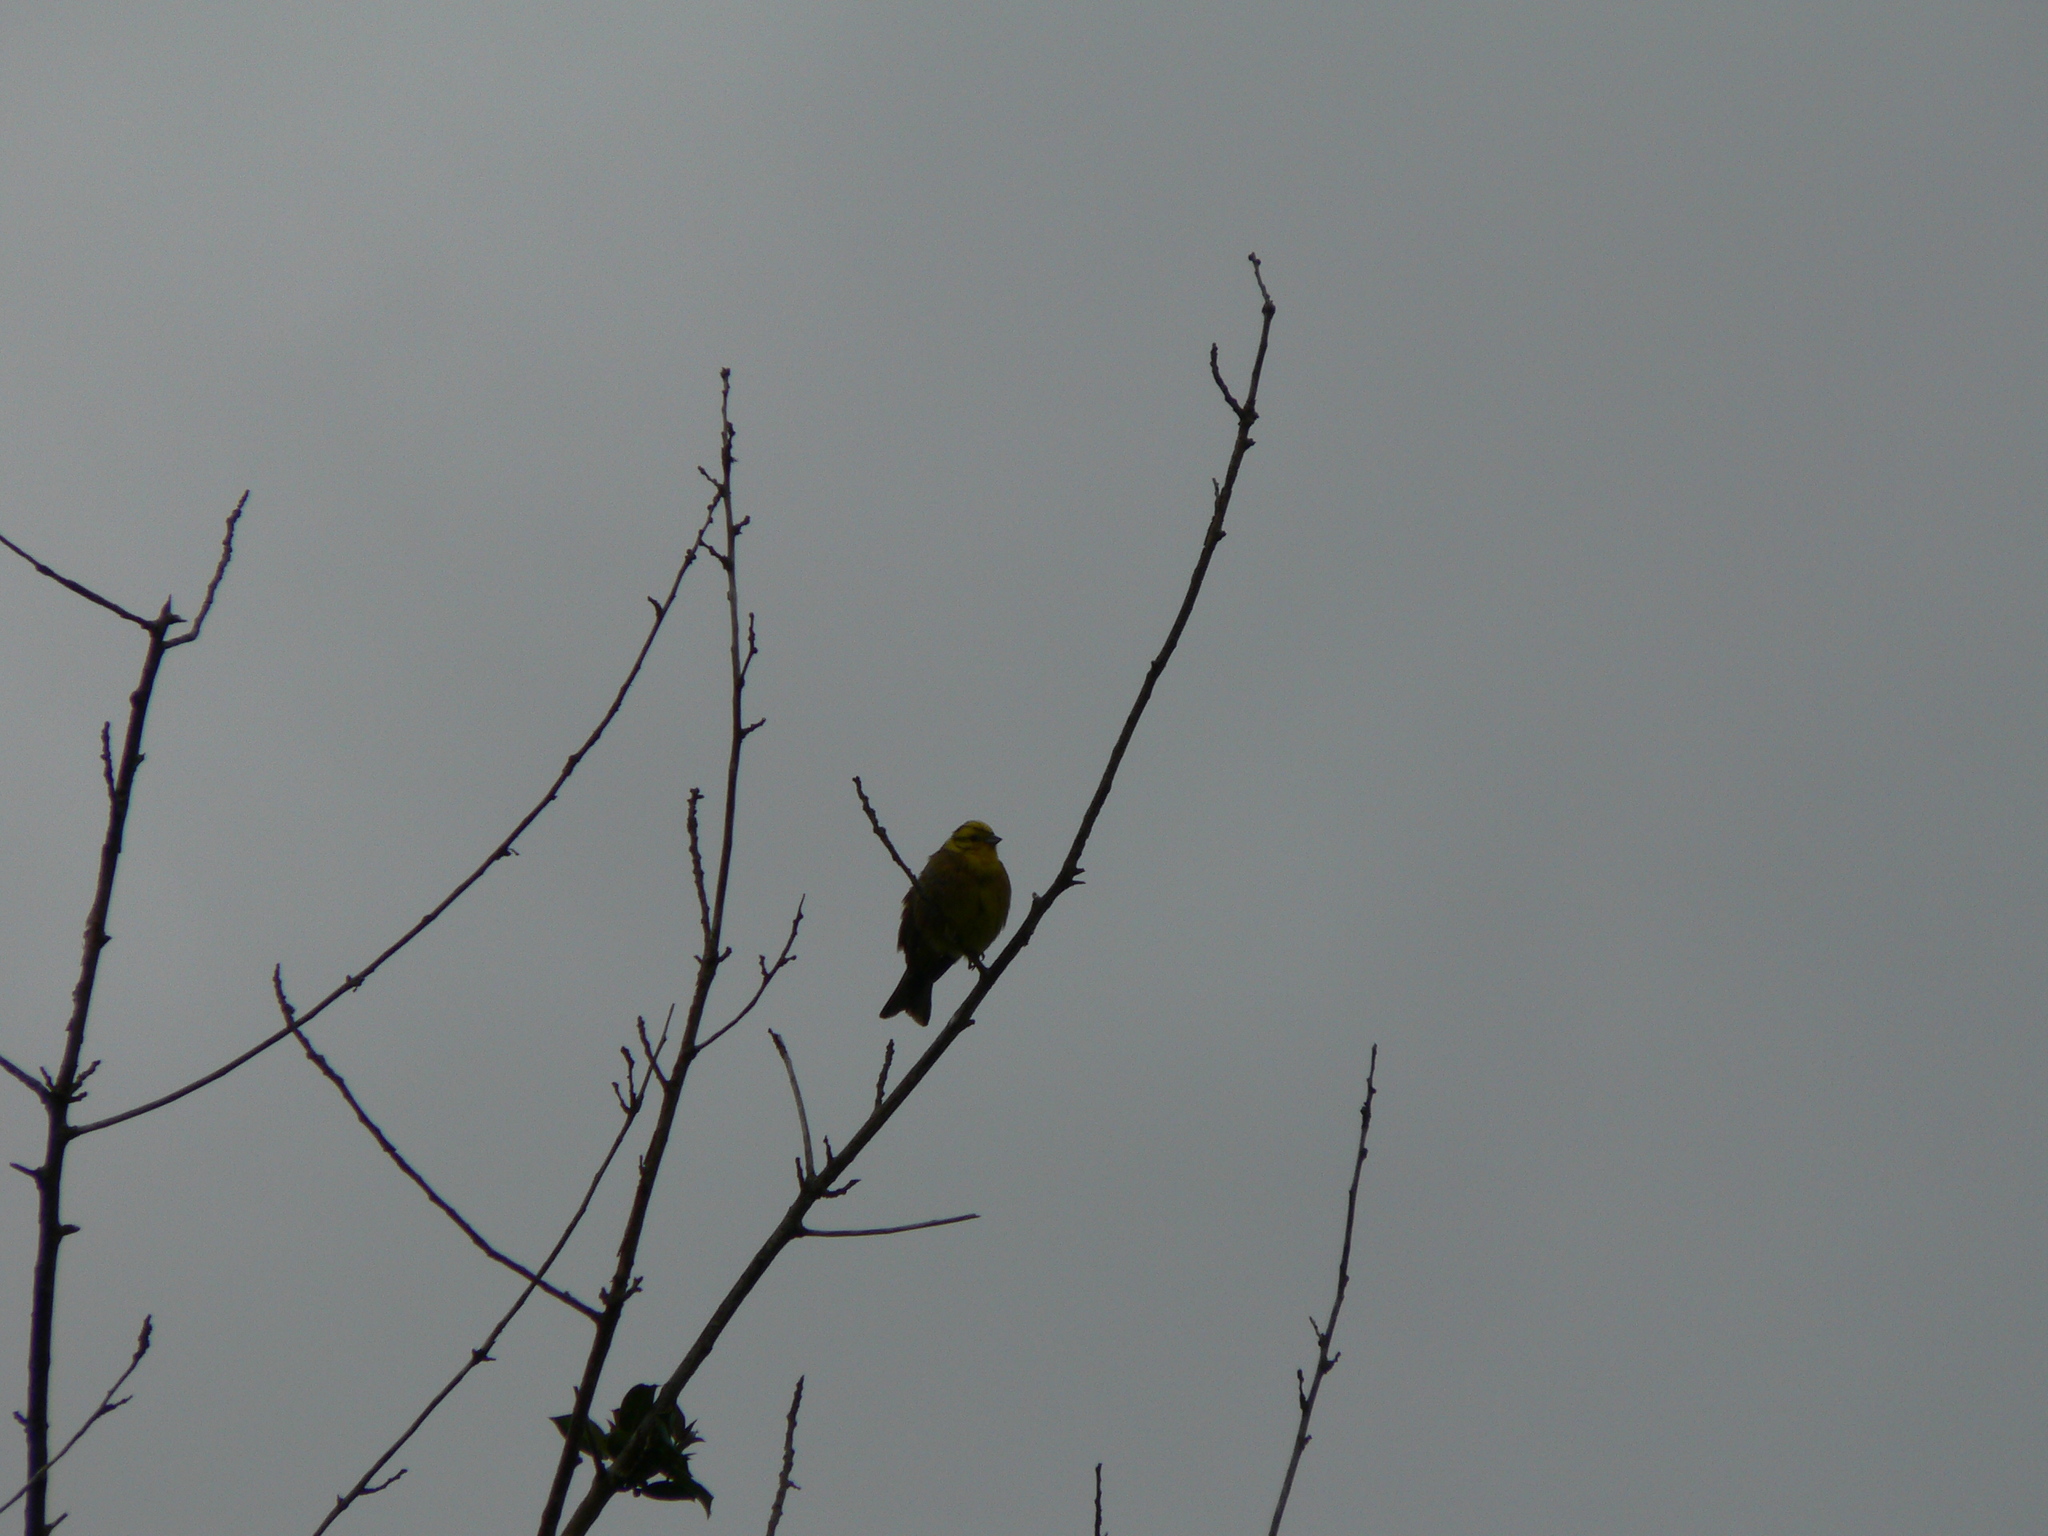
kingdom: Animalia
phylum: Chordata
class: Aves
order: Passeriformes
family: Emberizidae
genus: Emberiza
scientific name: Emberiza citrinella
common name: Yellowhammer
